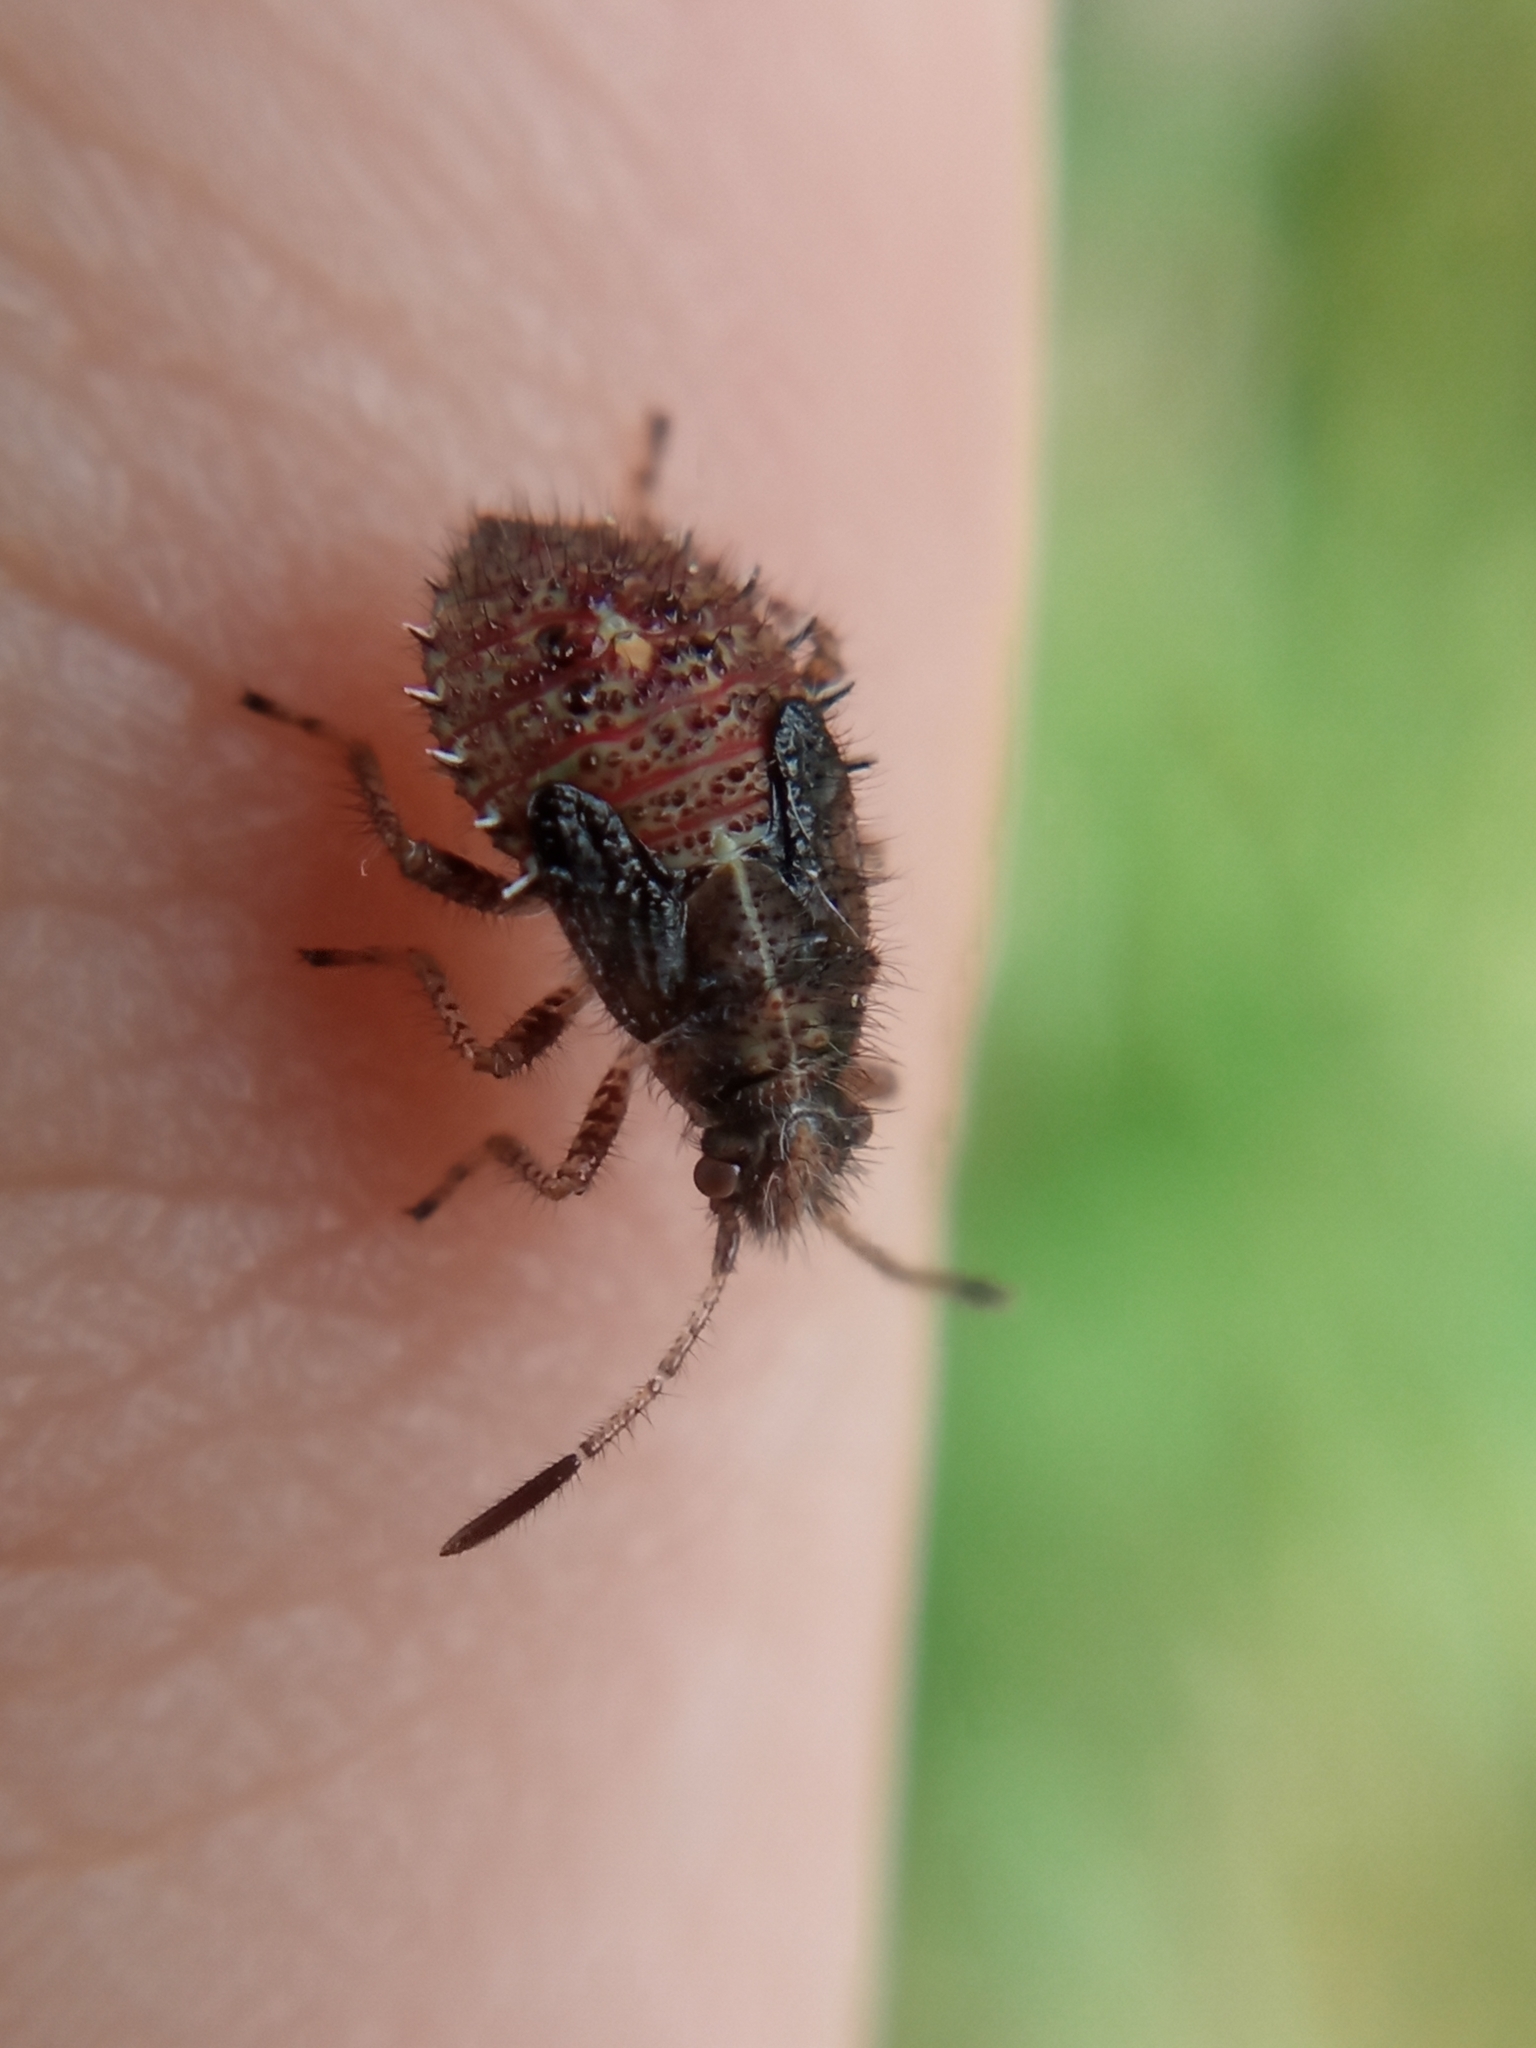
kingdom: Animalia
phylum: Arthropoda
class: Insecta
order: Hemiptera
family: Rhopalidae
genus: Rhopalus
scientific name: Rhopalus subrufus
